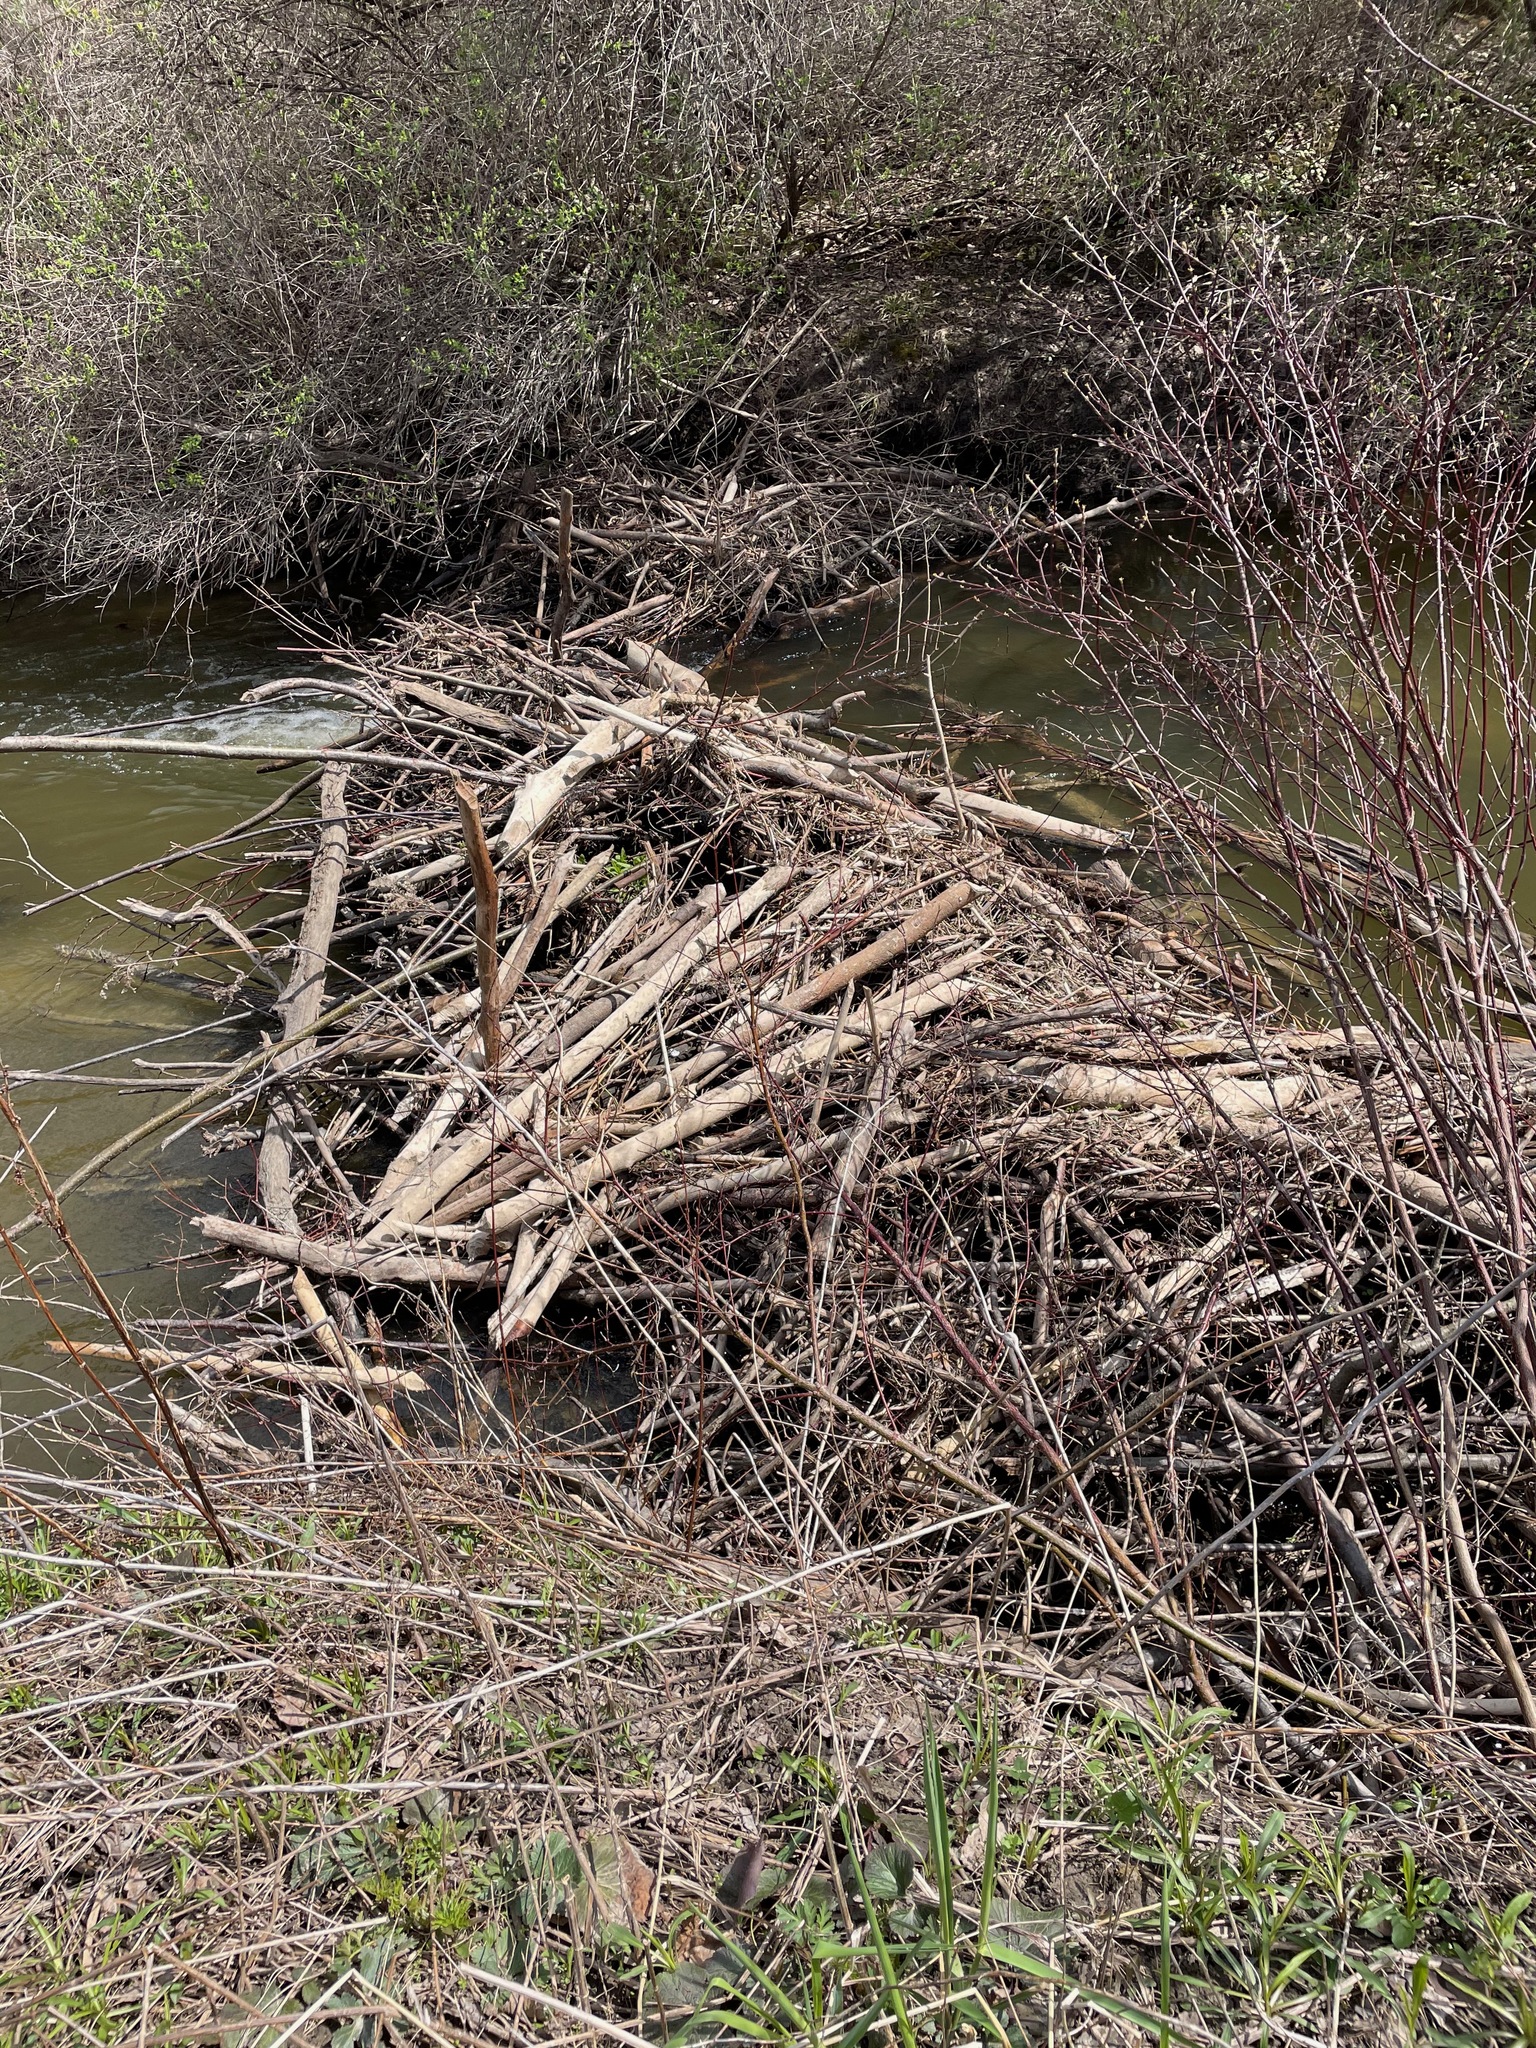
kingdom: Animalia
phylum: Chordata
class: Mammalia
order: Rodentia
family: Castoridae
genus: Castor
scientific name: Castor canadensis
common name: American beaver
